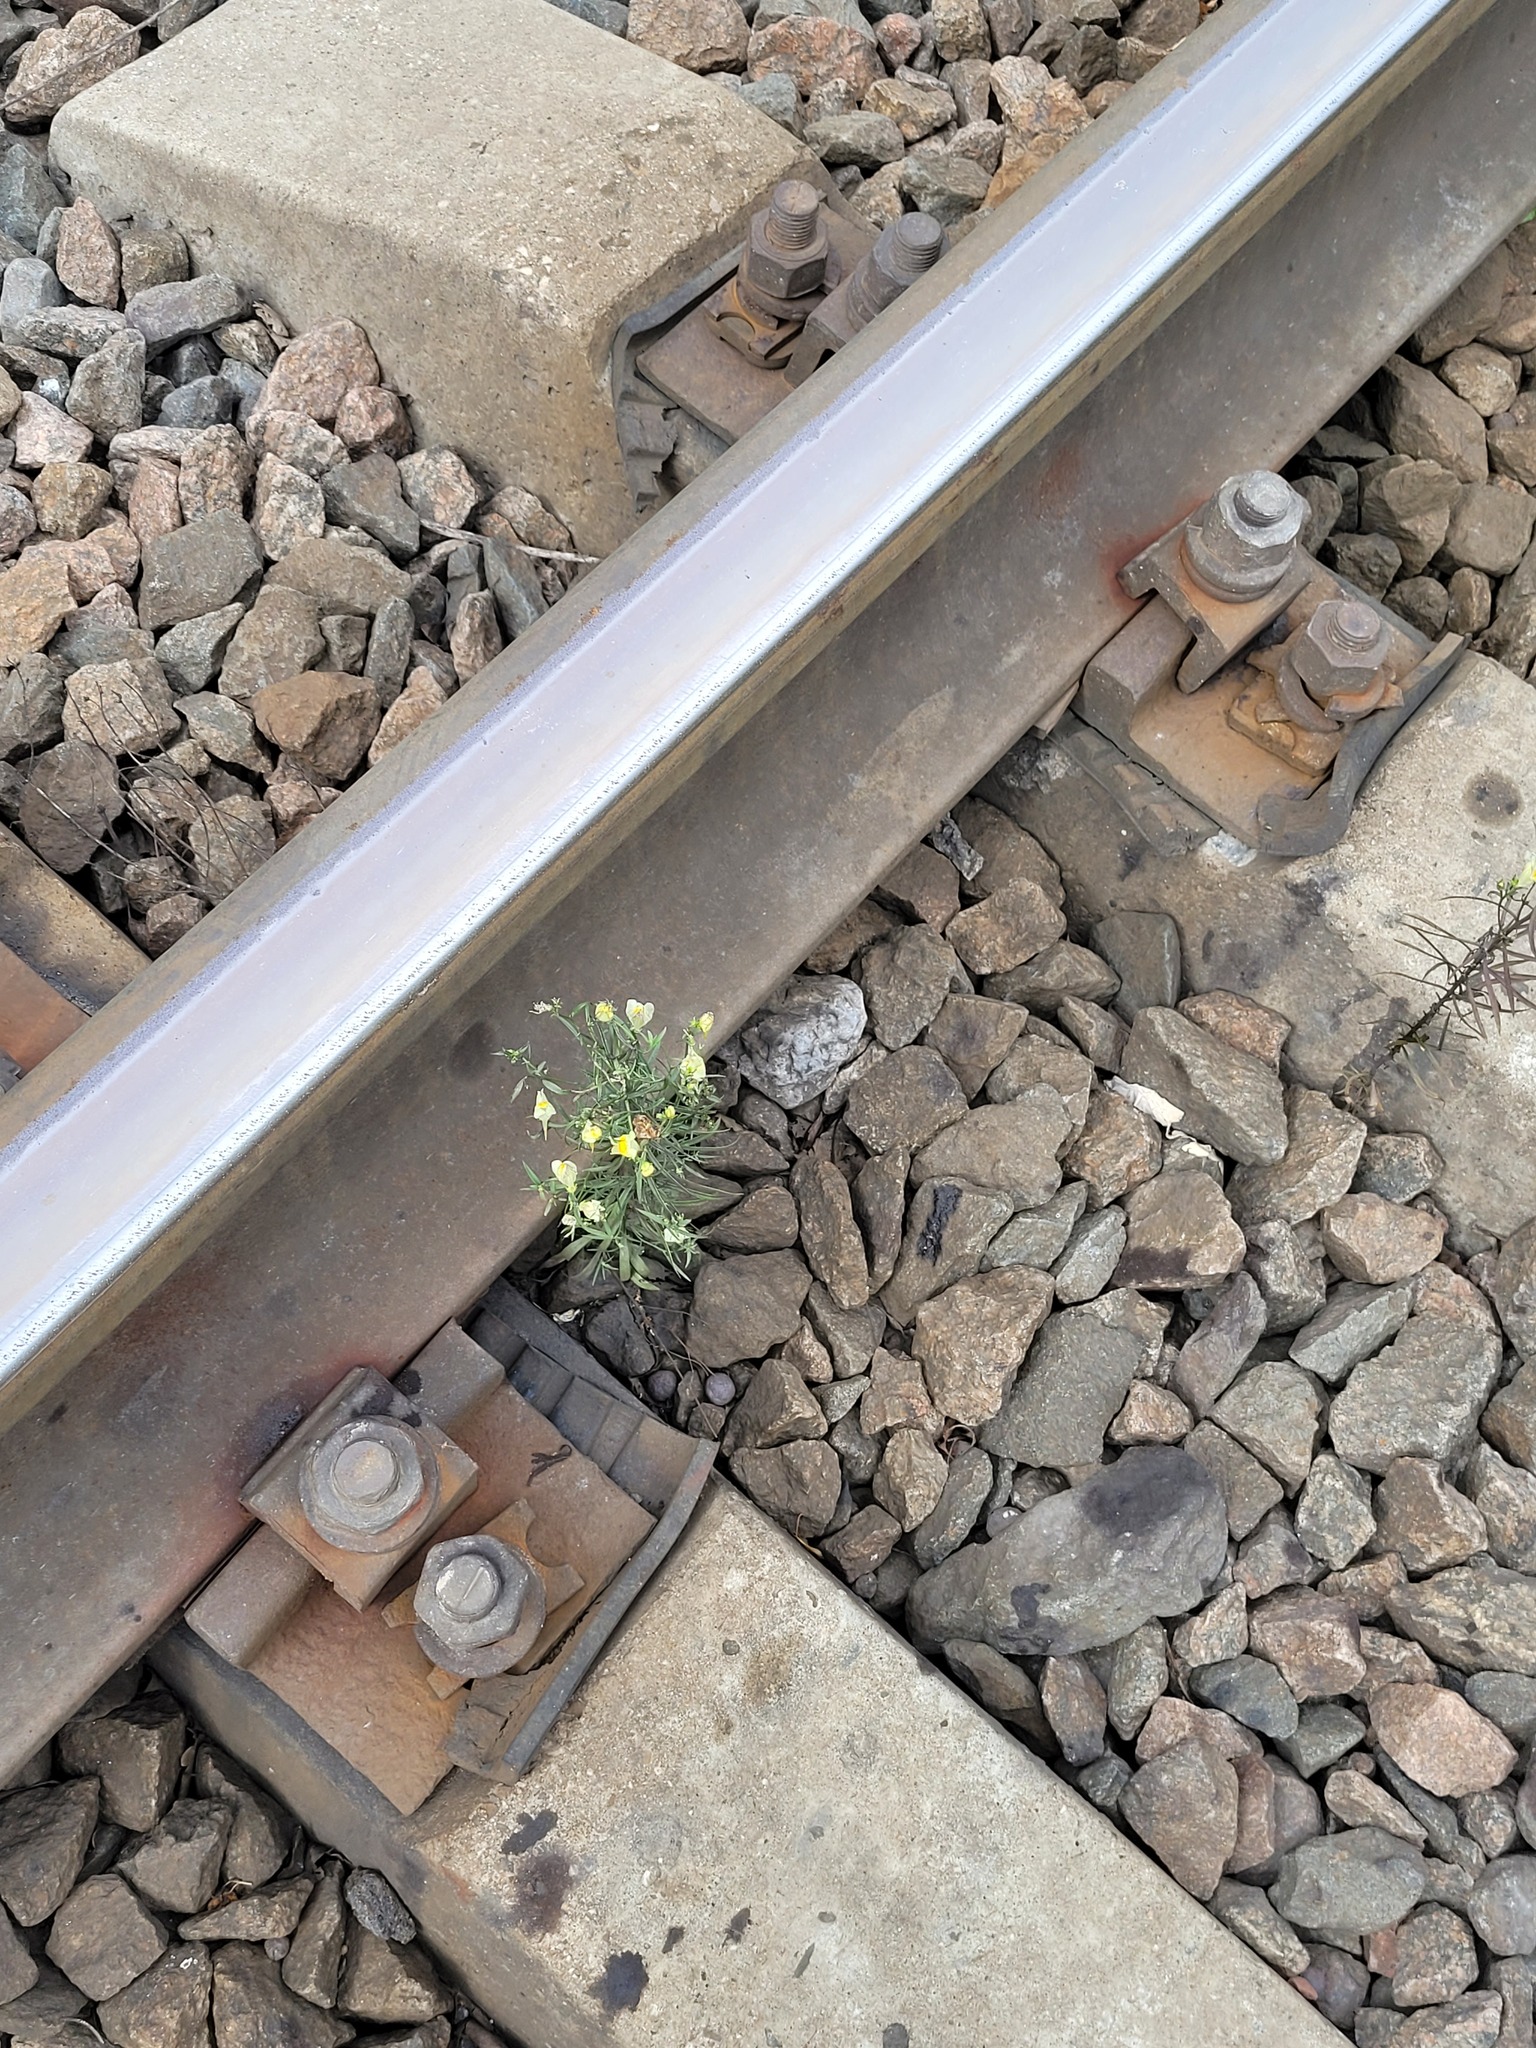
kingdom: Plantae
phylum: Tracheophyta
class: Magnoliopsida
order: Lamiales
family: Plantaginaceae
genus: Linaria
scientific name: Linaria vulgaris
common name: Butter and eggs
